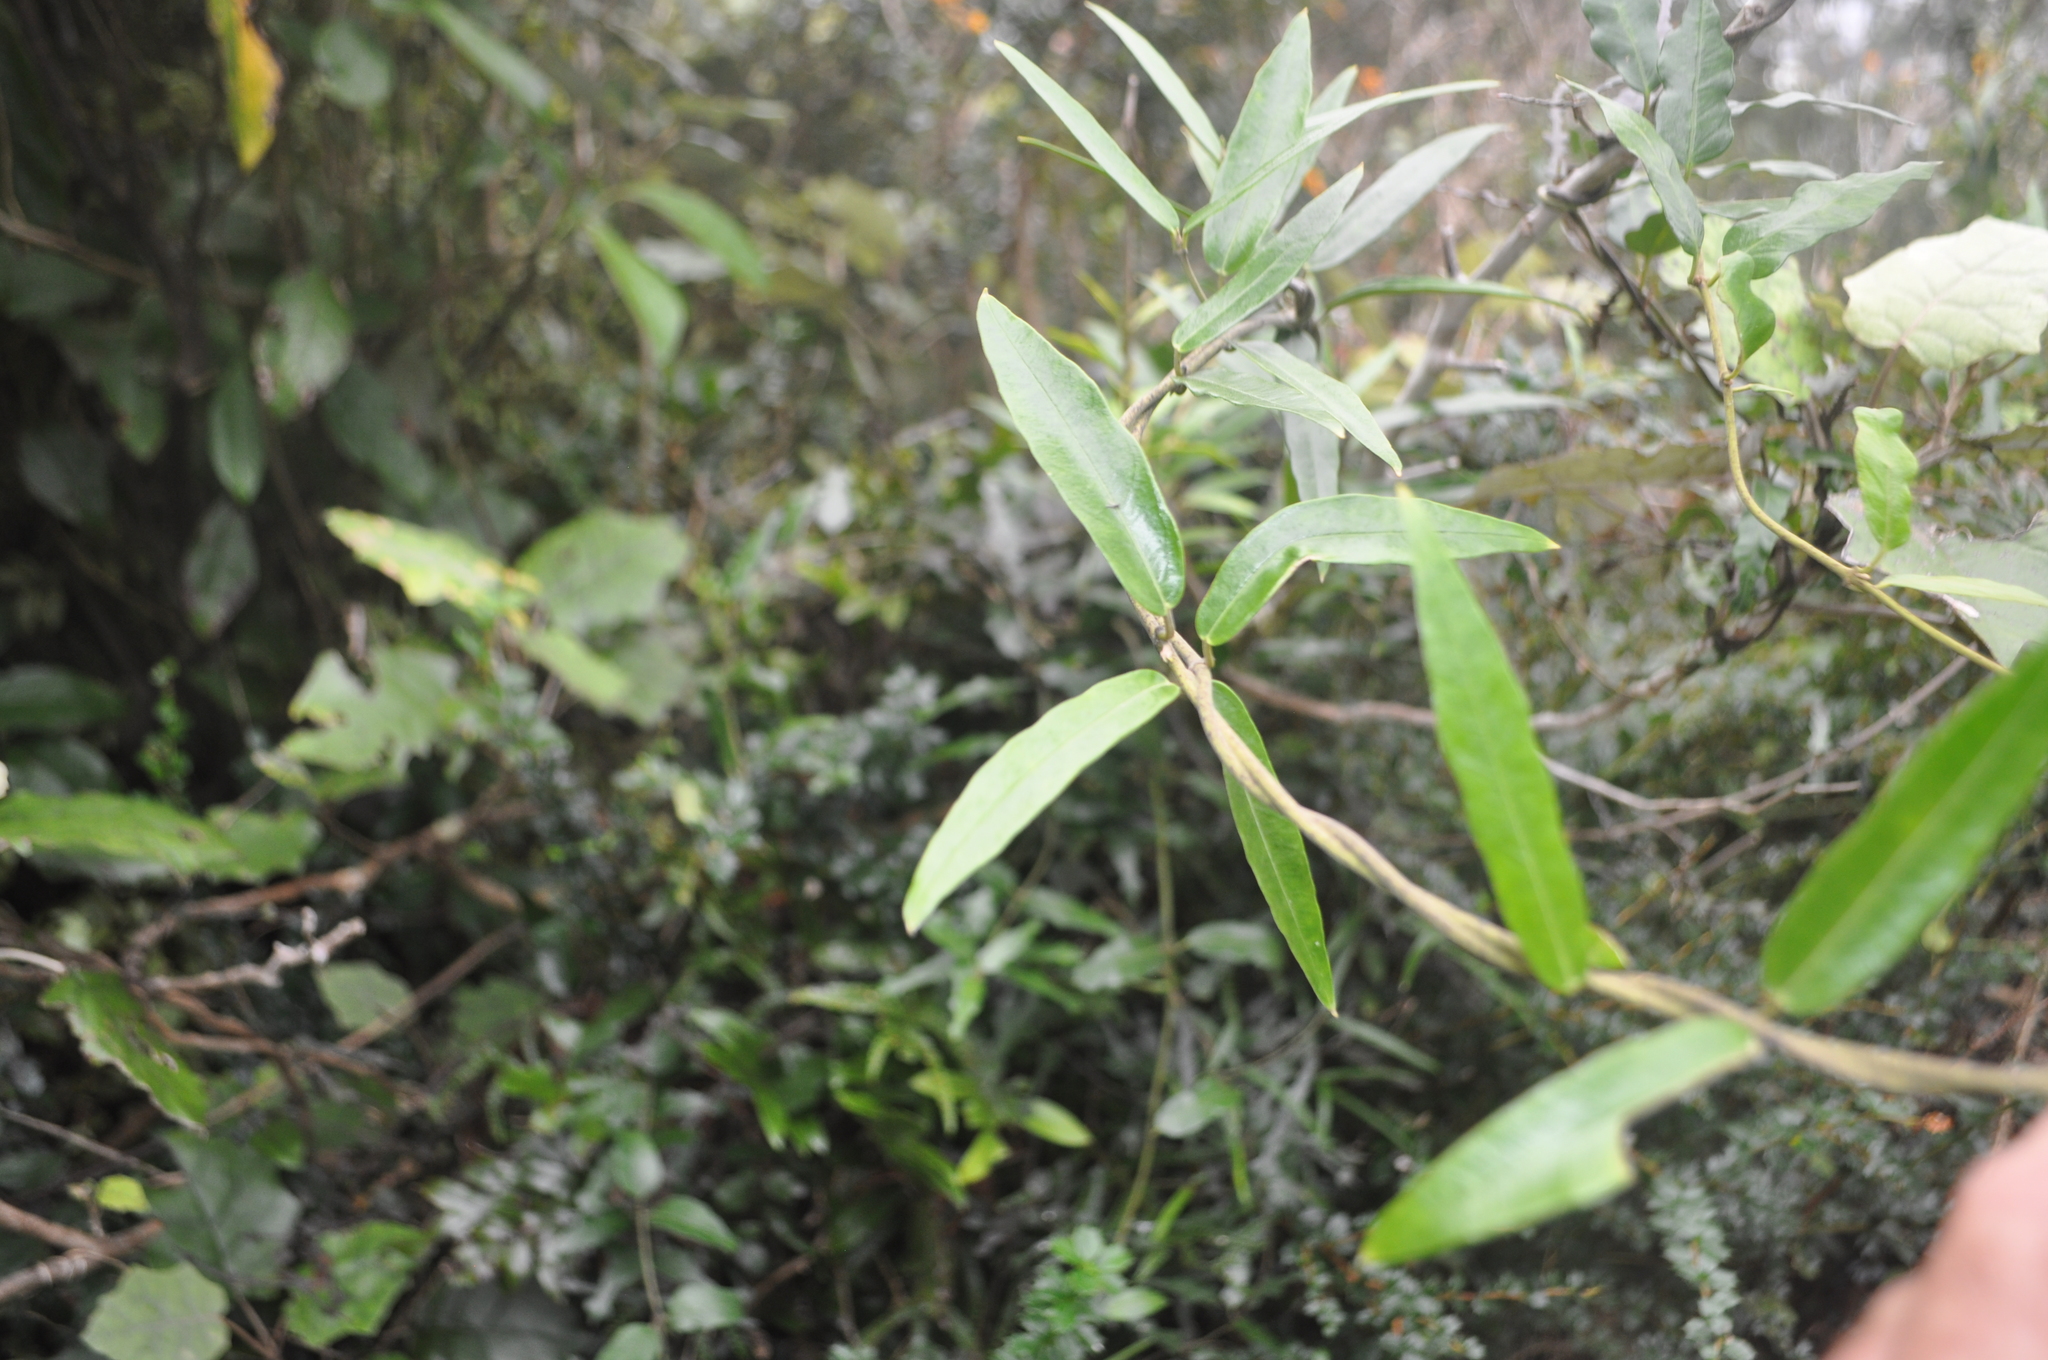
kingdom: Plantae
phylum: Tracheophyta
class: Magnoliopsida
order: Gentianales
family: Apocynaceae
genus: Parsonsia
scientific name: Parsonsia heterophylla
